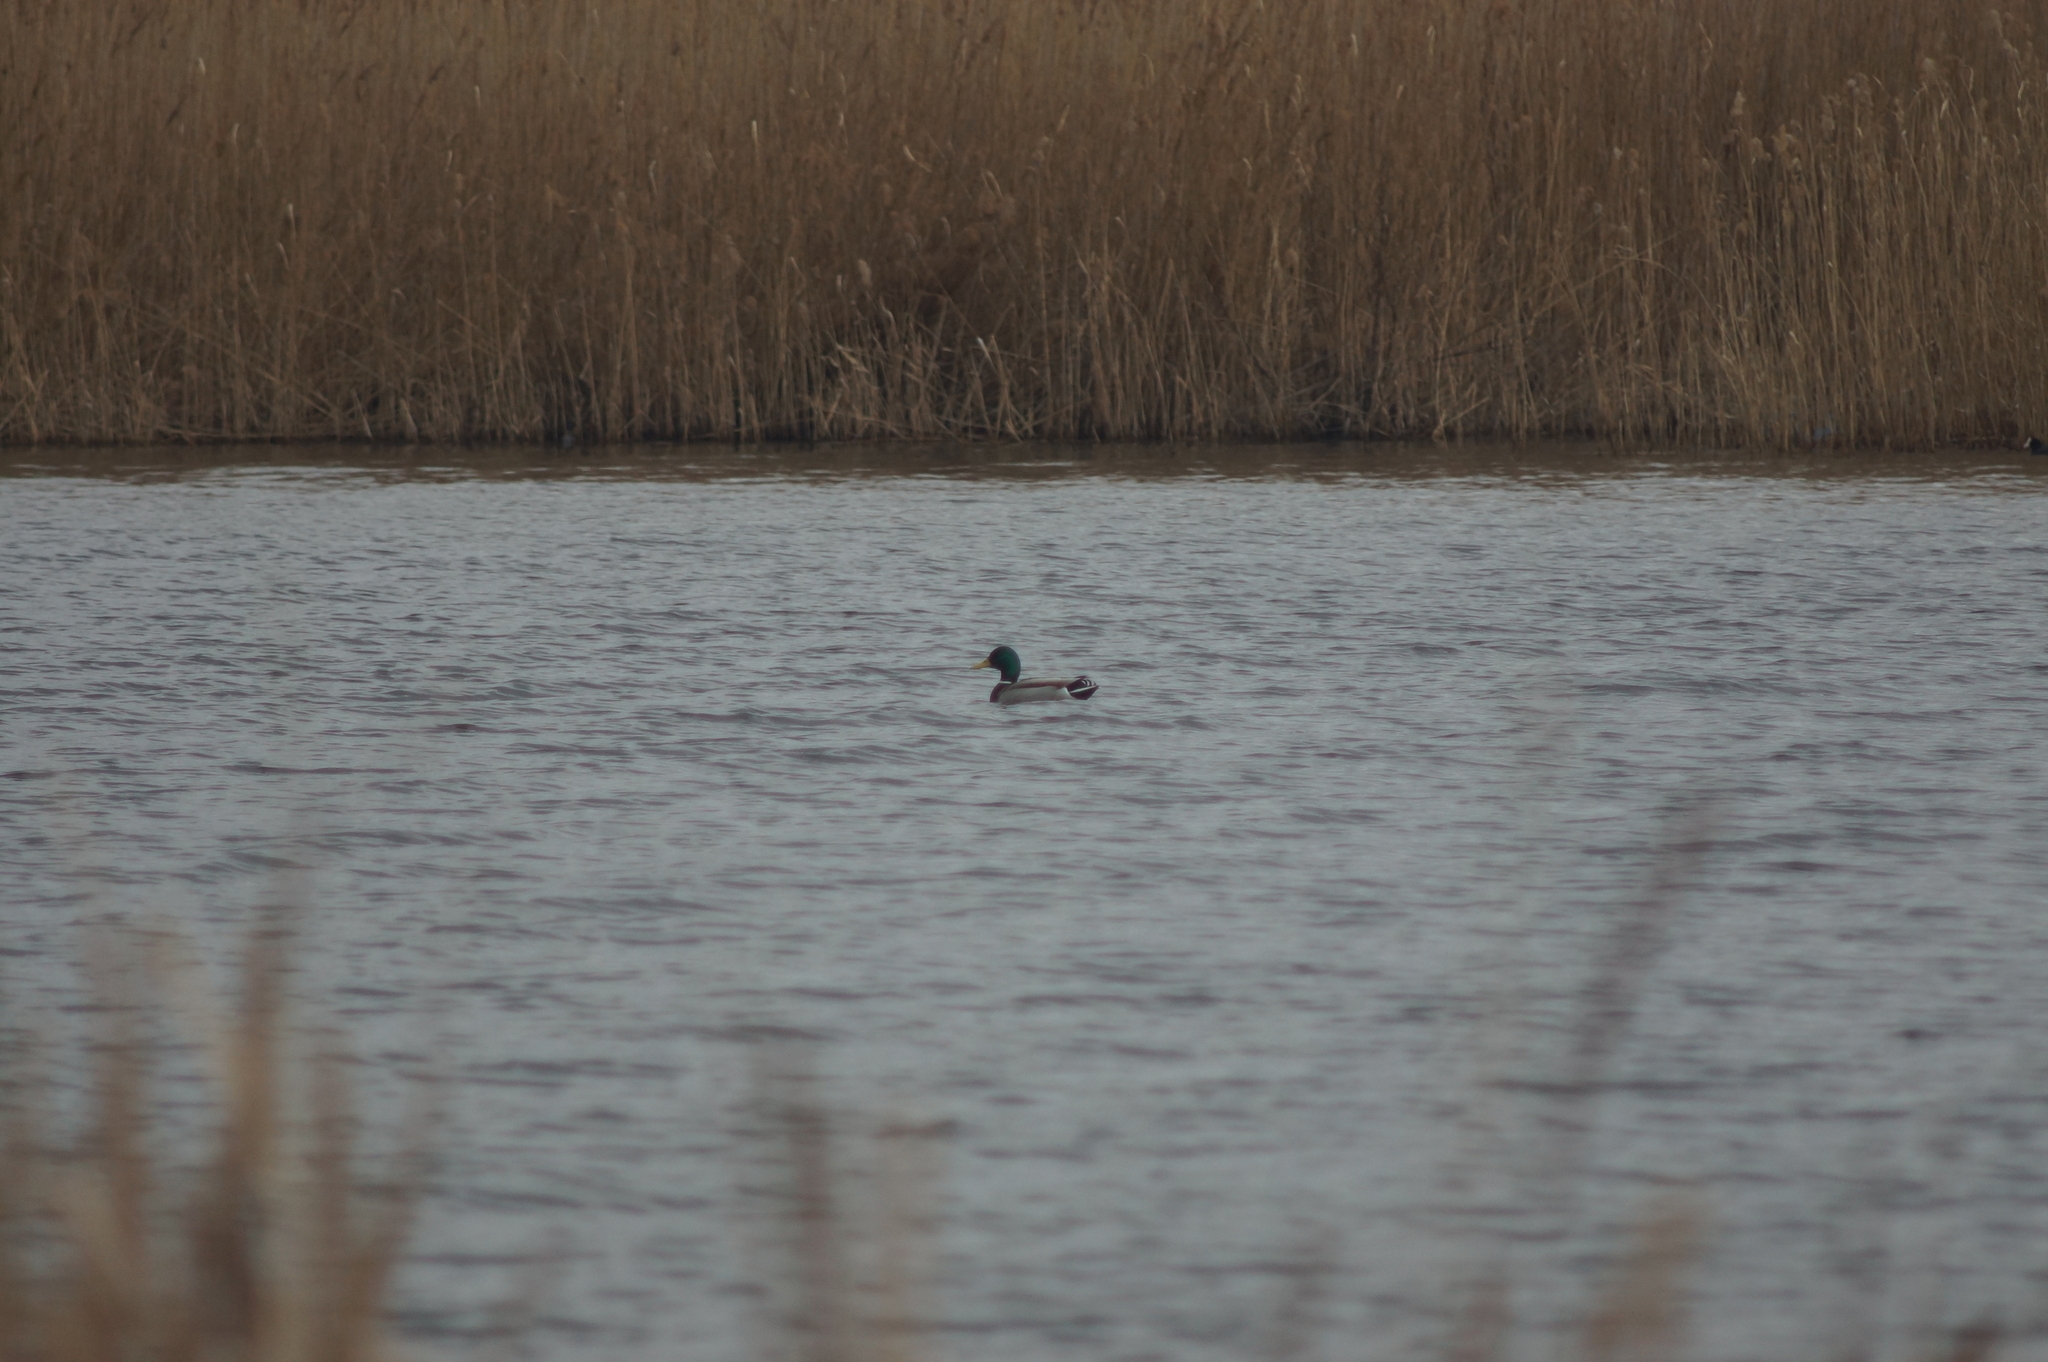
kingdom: Animalia
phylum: Chordata
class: Aves
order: Anseriformes
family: Anatidae
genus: Anas
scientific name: Anas platyrhynchos
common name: Mallard
